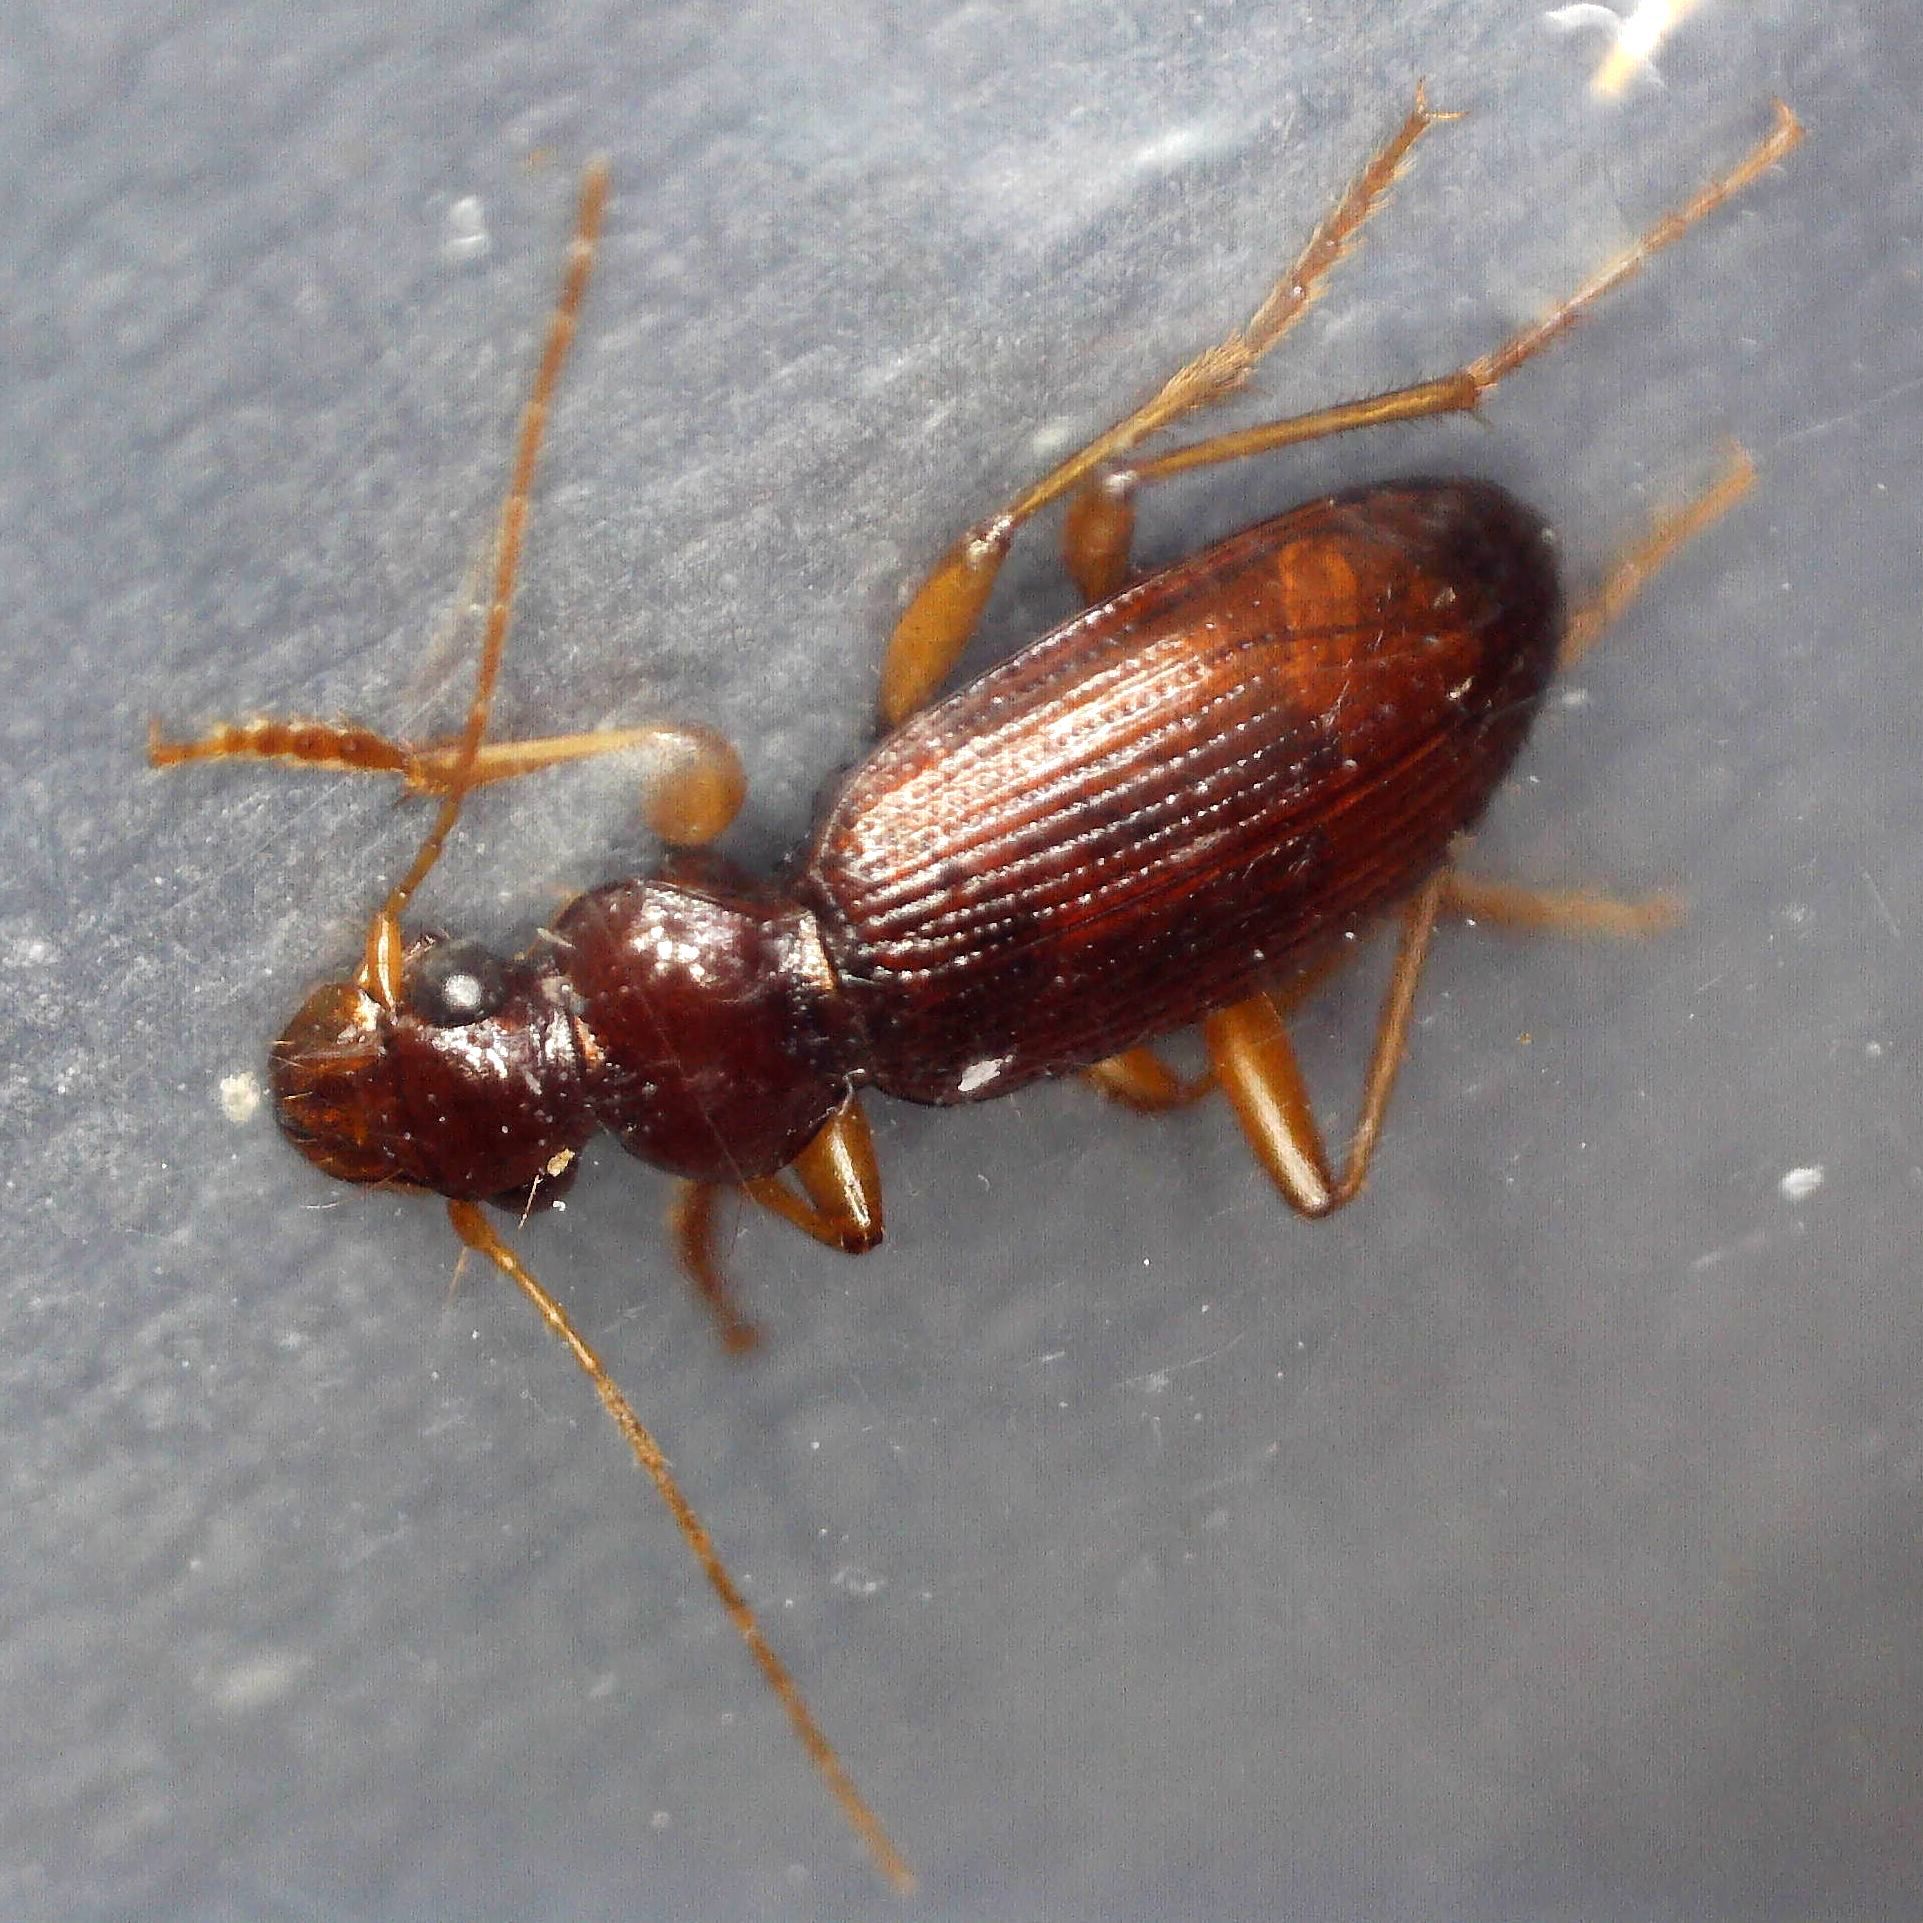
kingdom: Animalia
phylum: Arthropoda
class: Insecta
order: Coleoptera
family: Carabidae
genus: Leistus
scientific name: Leistus ferrugineus
